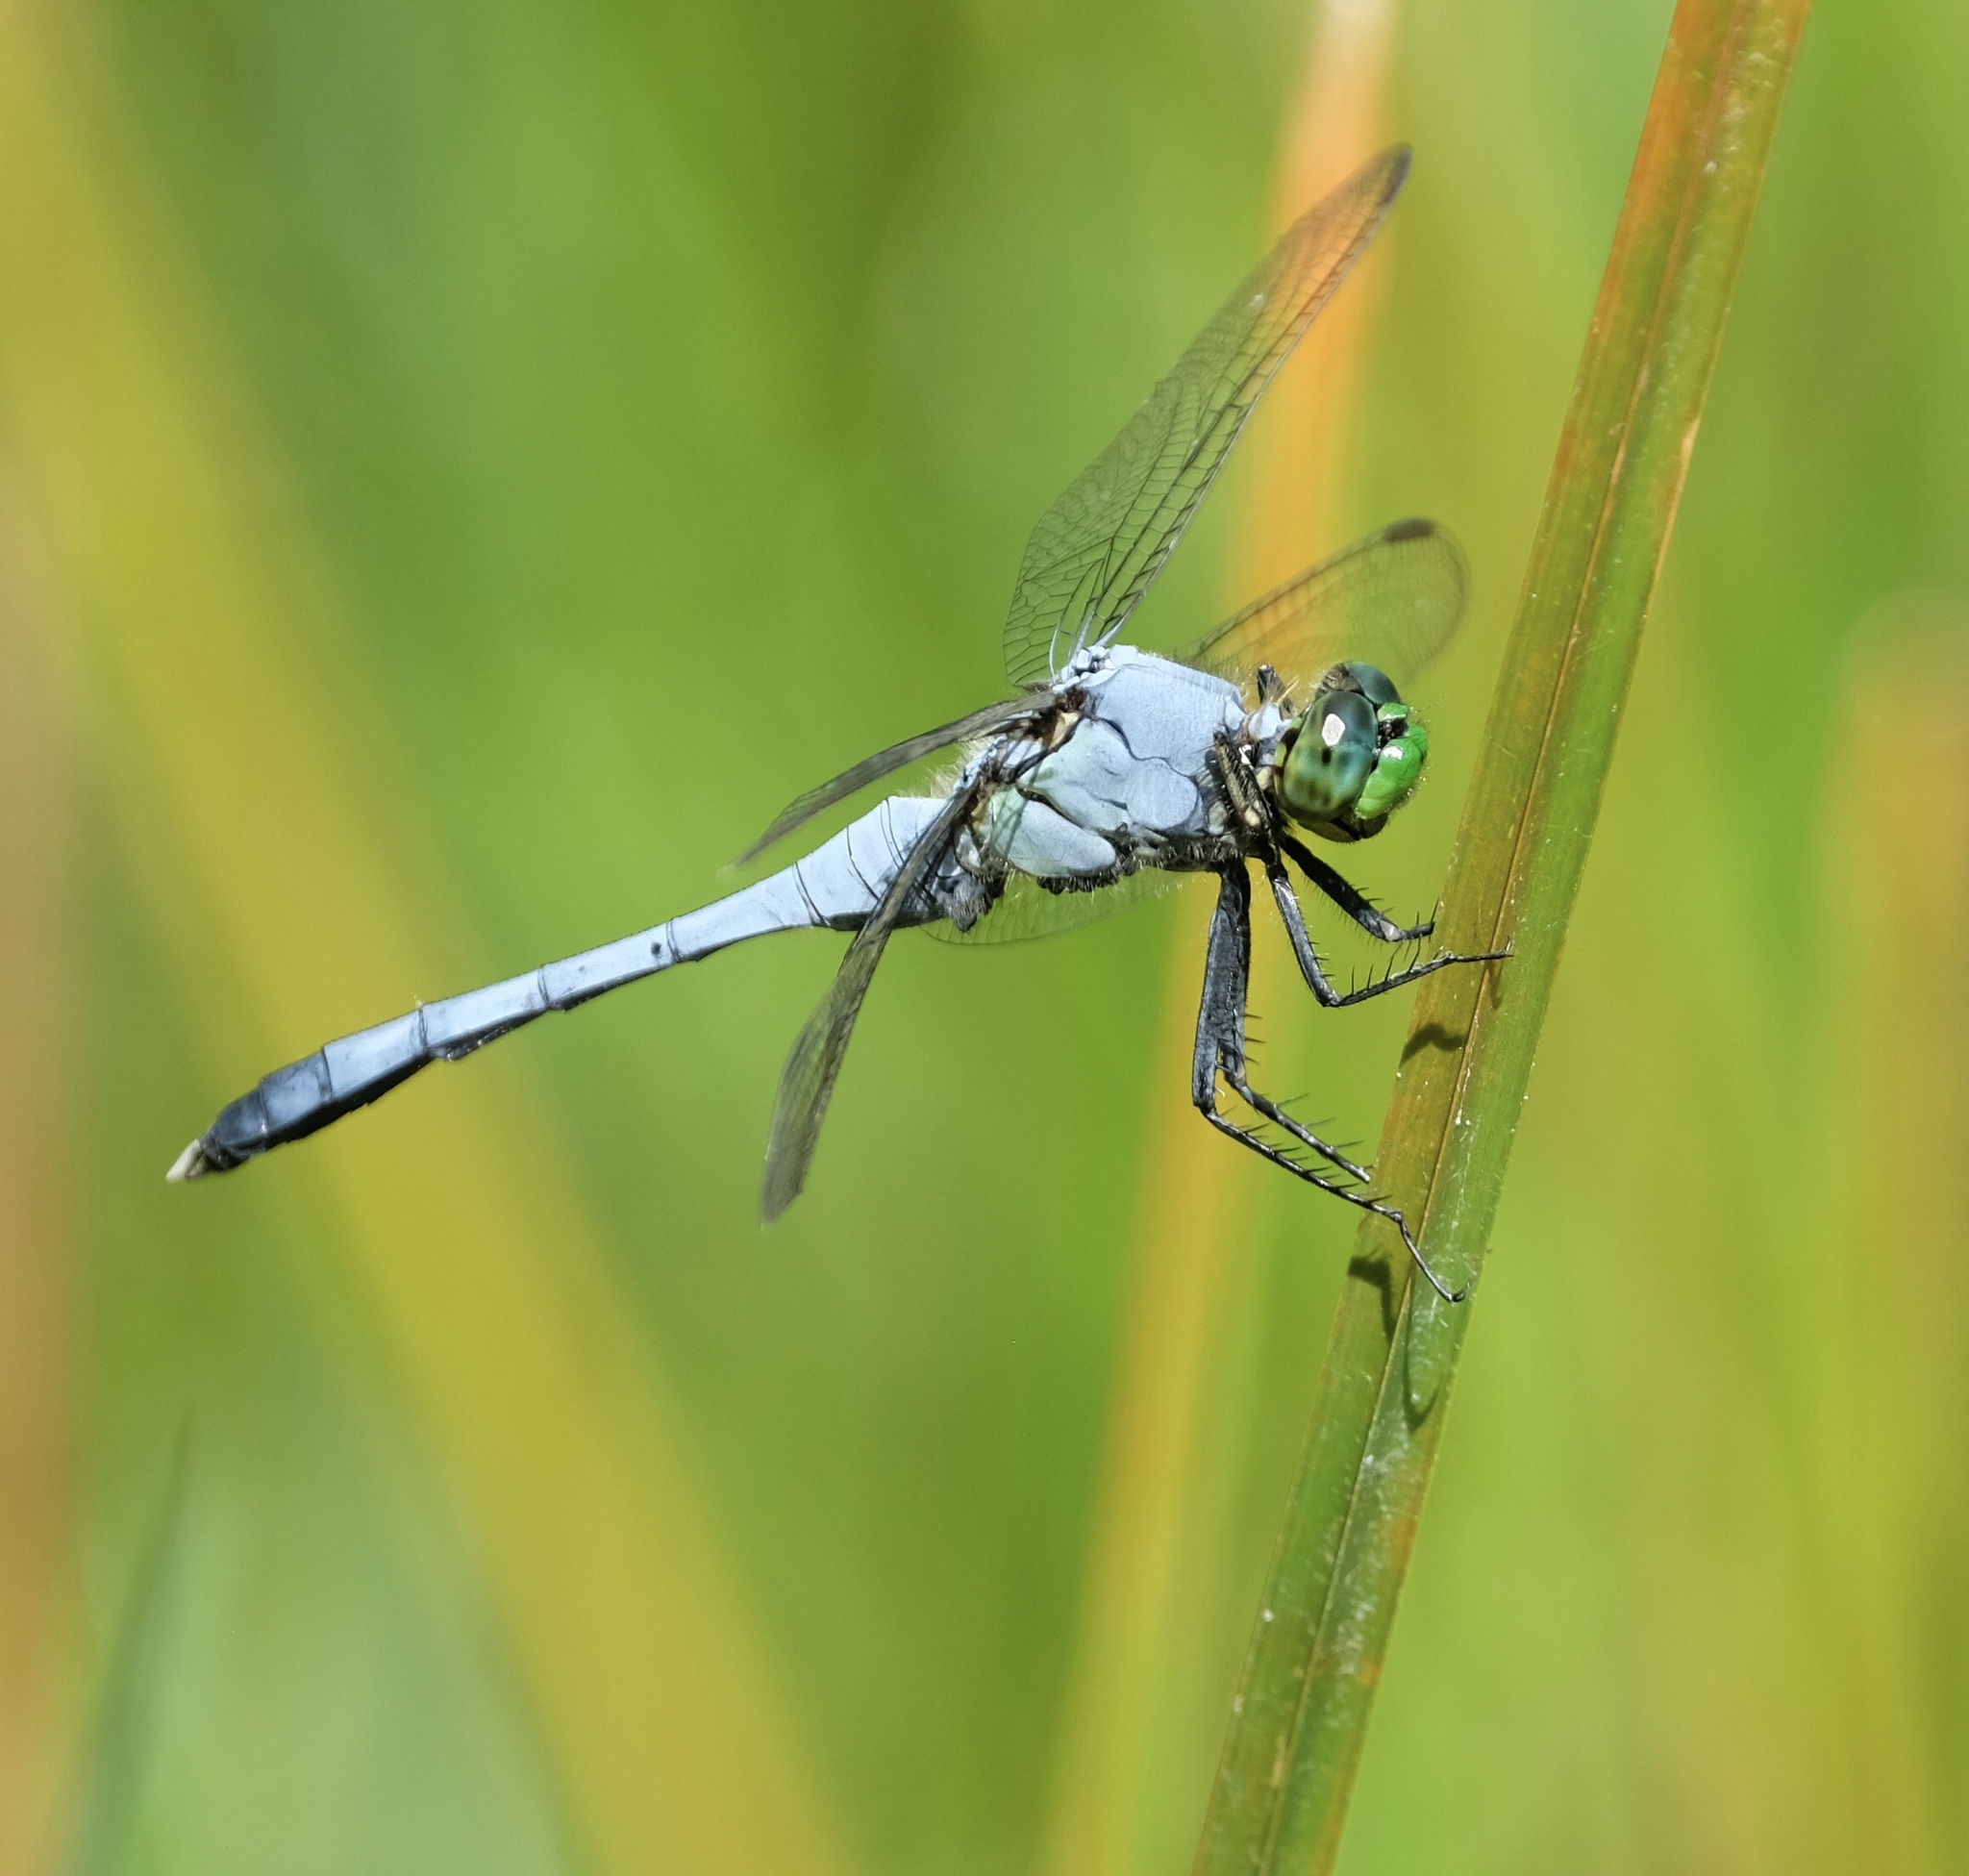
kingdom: Animalia
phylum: Arthropoda
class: Insecta
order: Odonata
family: Libellulidae
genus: Erythemis
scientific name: Erythemis simplicicollis
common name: Eastern pondhawk
